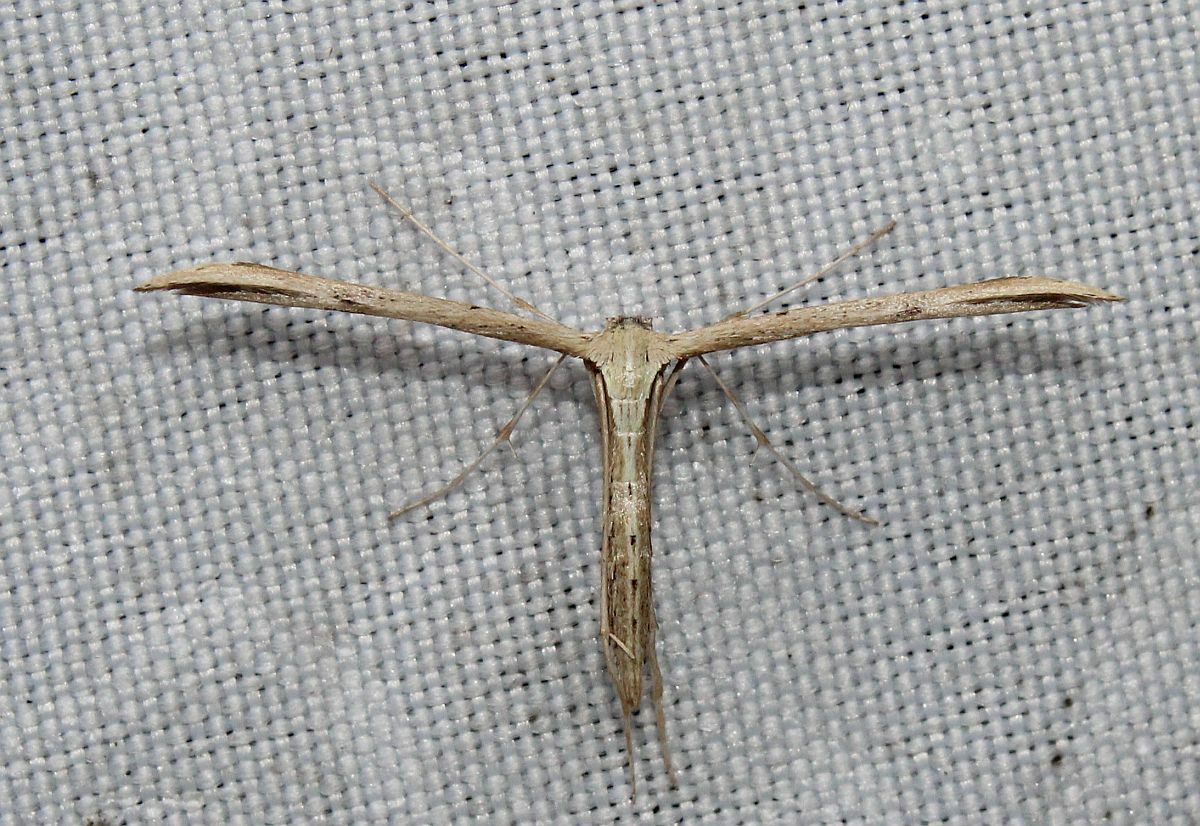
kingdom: Animalia
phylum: Arthropoda
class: Insecta
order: Lepidoptera
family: Pterophoridae
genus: Emmelina
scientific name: Emmelina monodactyla
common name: Common plume
